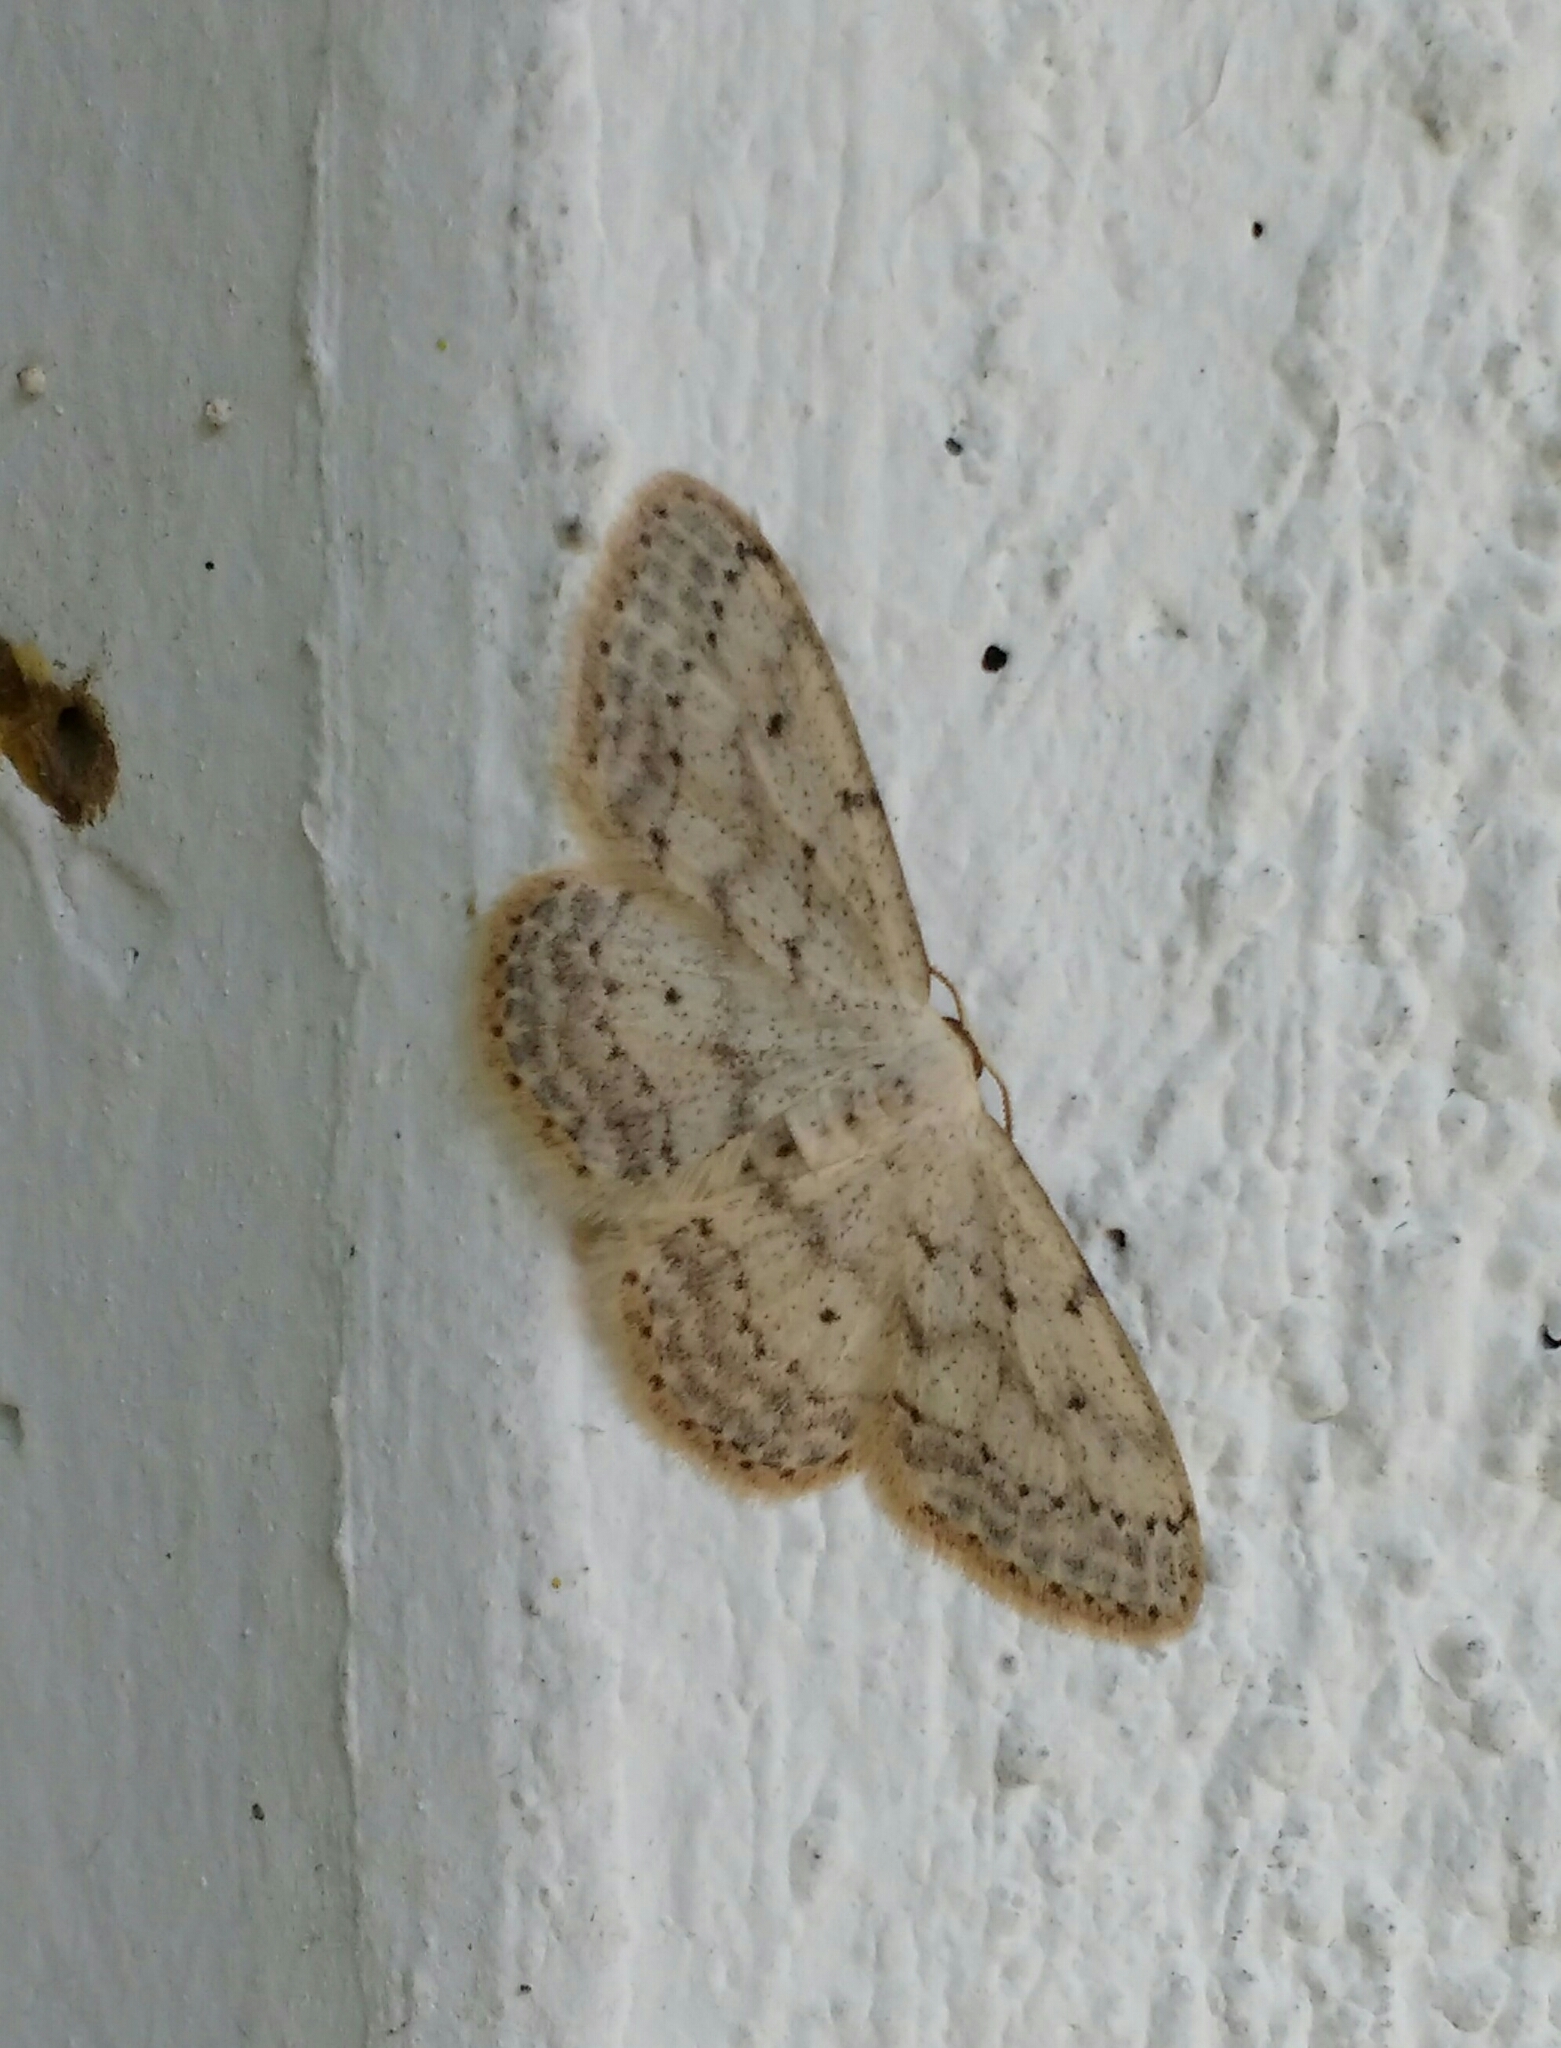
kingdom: Animalia
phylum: Arthropoda
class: Insecta
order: Lepidoptera
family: Geometridae
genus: Idaea
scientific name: Idaea seriata
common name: Small dusty wave
